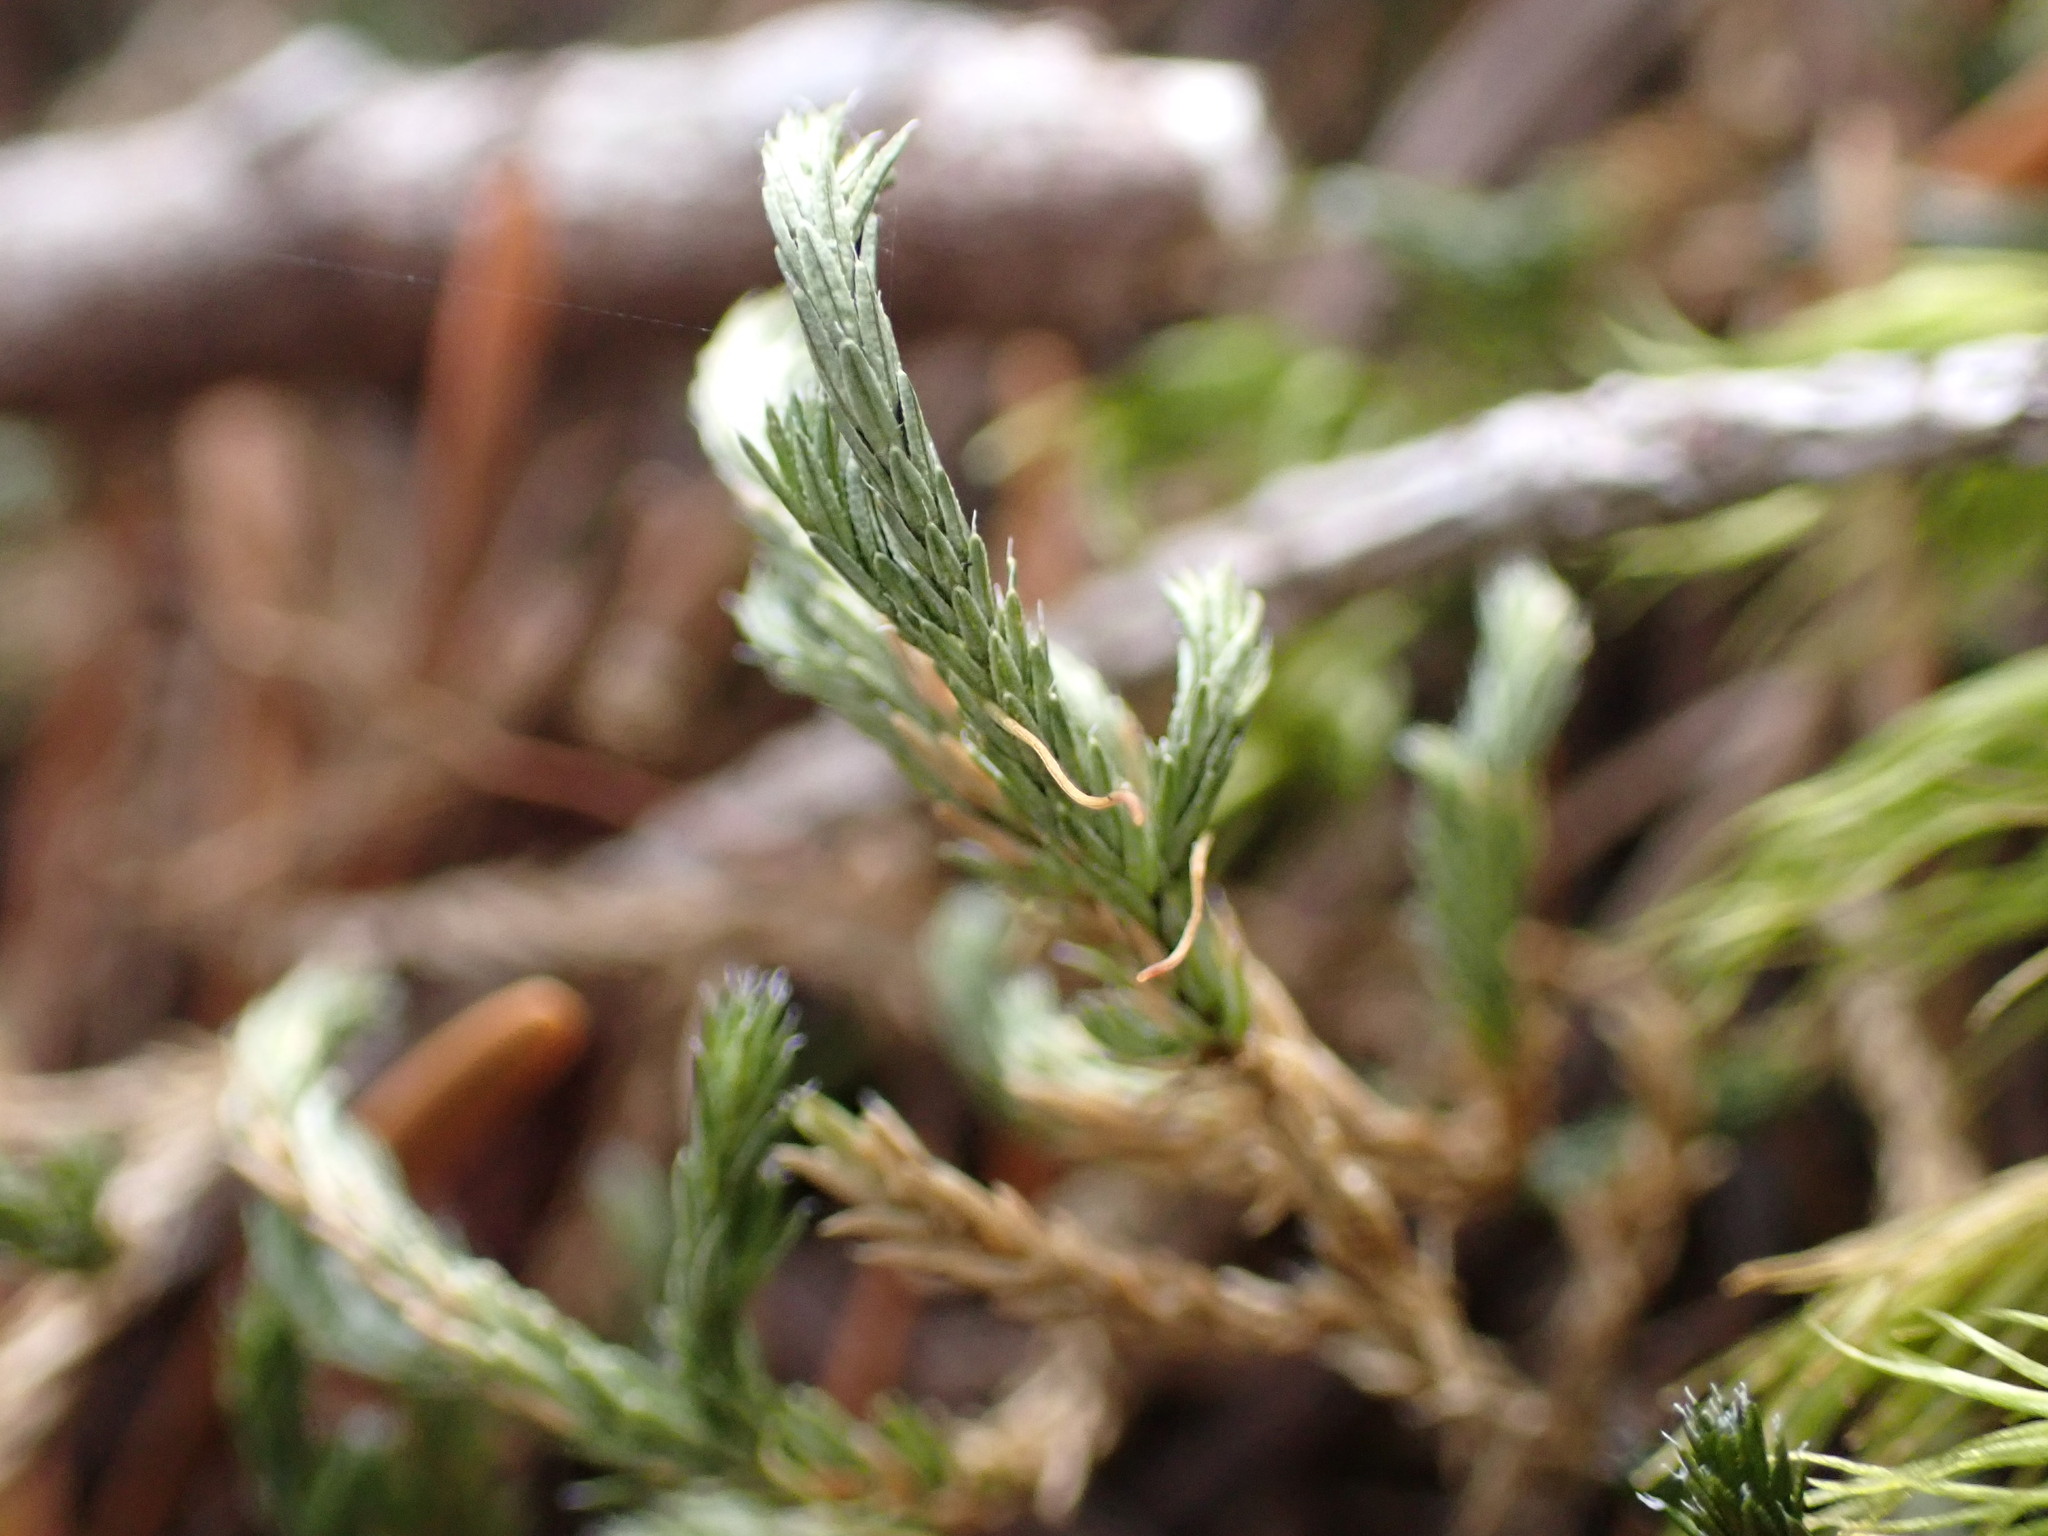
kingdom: Plantae
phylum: Tracheophyta
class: Lycopodiopsida
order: Selaginellales
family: Selaginellaceae
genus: Selaginella
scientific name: Selaginella wallacei
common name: Wallace's selaginella
